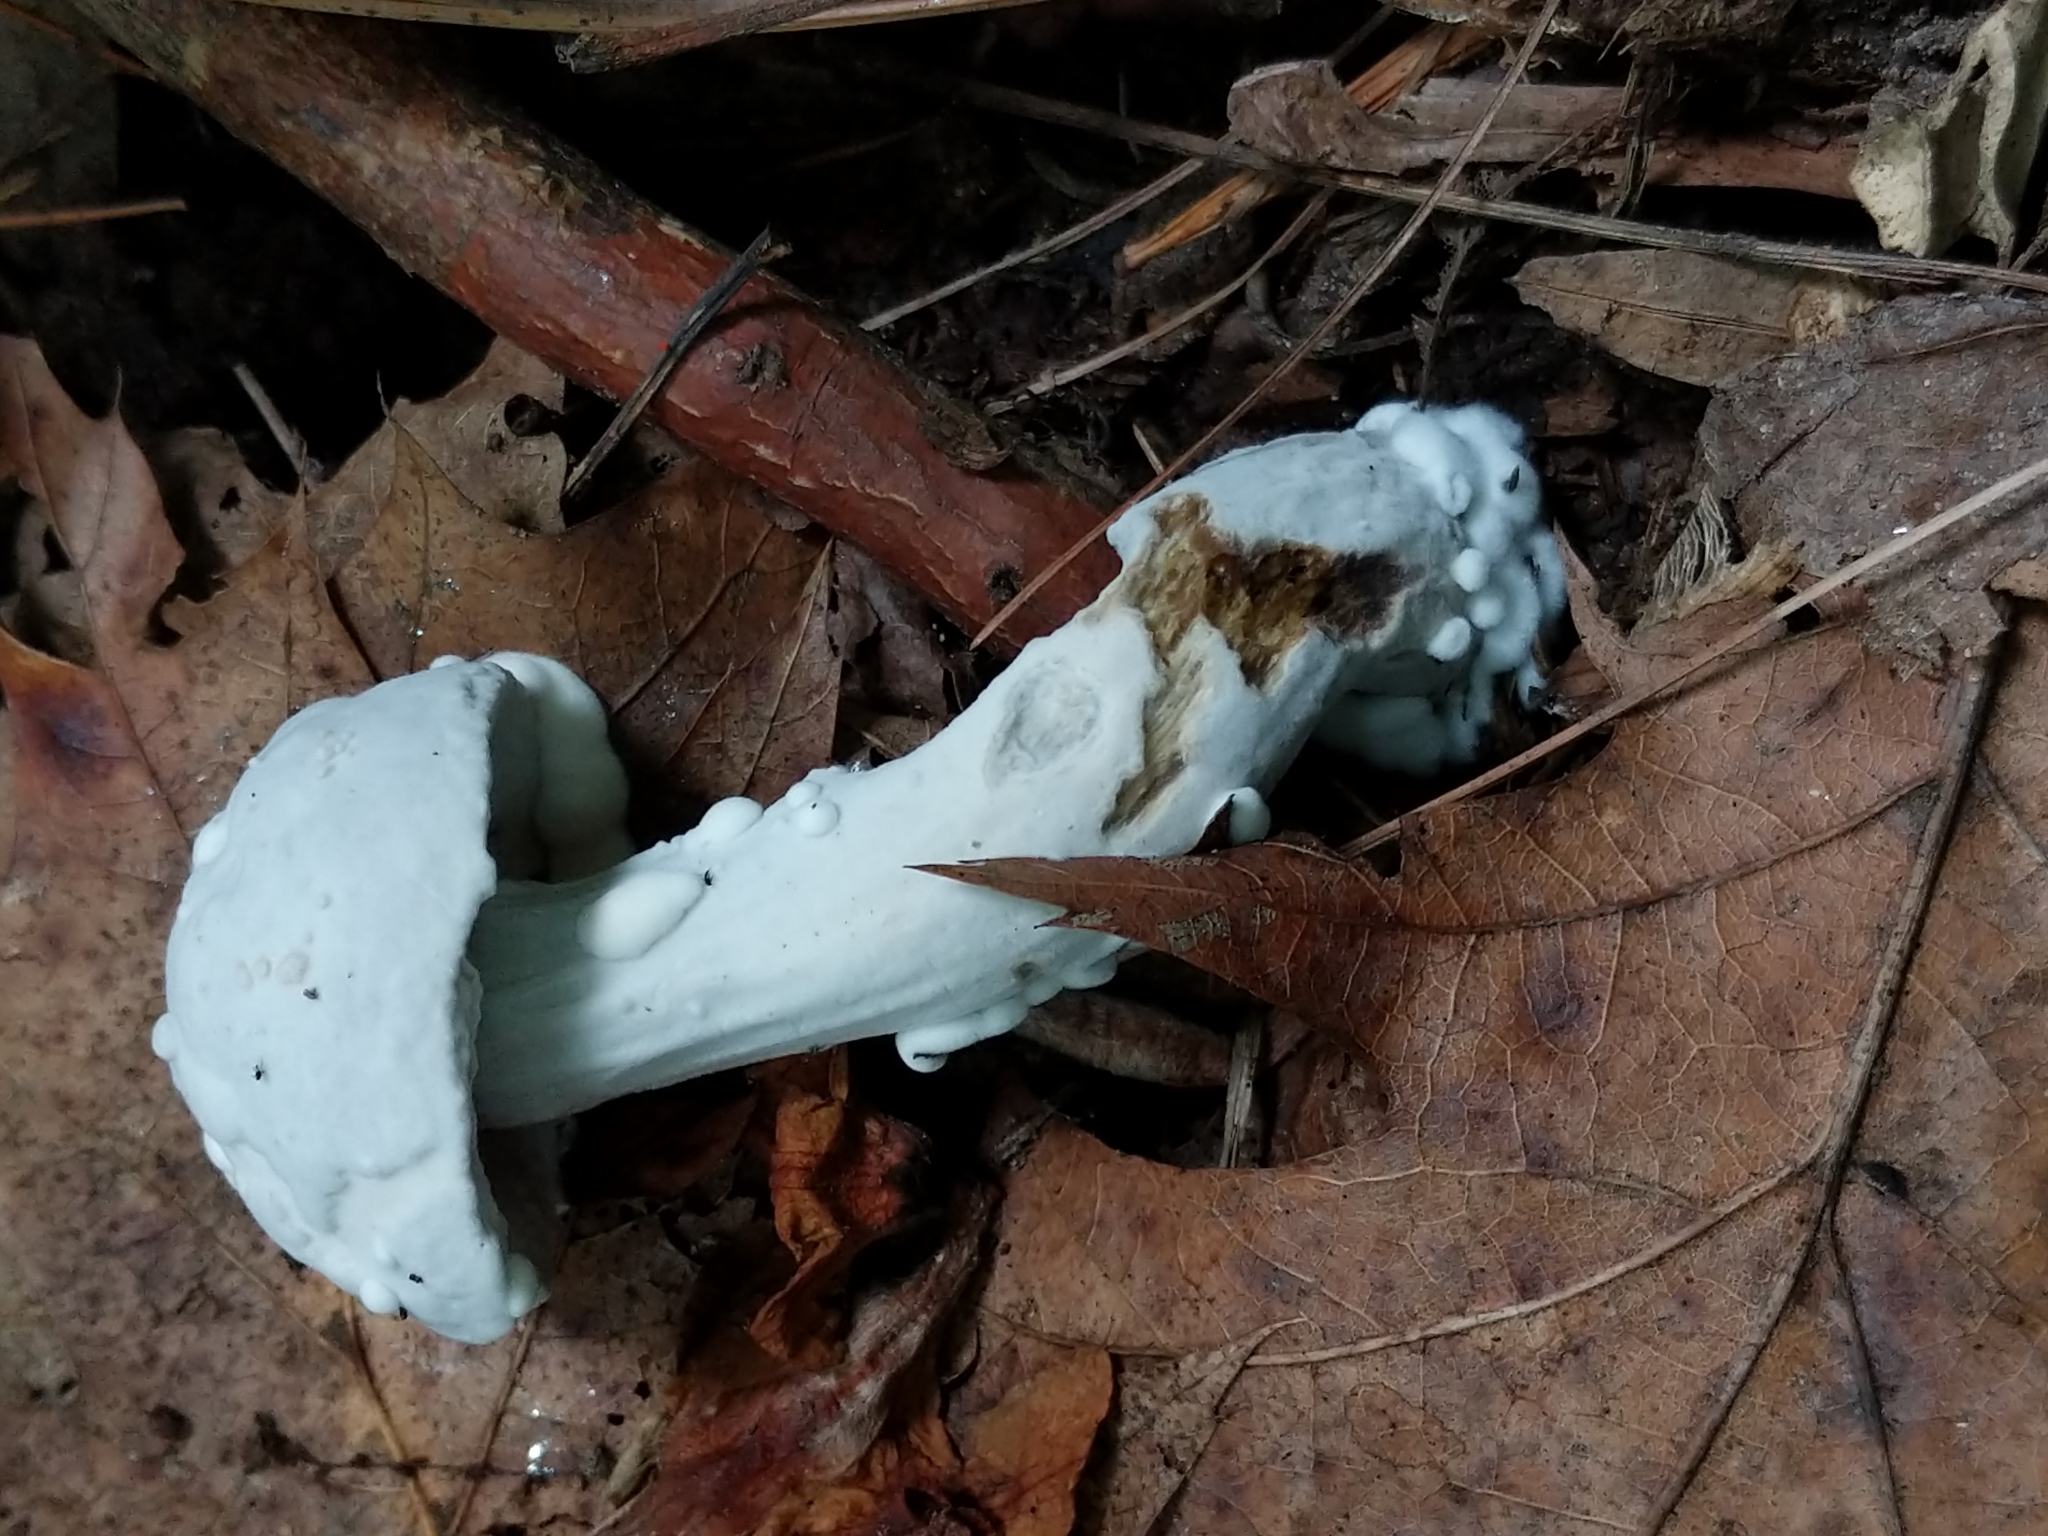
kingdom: Fungi
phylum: Ascomycota
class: Sordariomycetes
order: Hypocreales
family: Hypocreaceae
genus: Hypomyces
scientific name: Hypomyces chrysospermus
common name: Bolete mould
